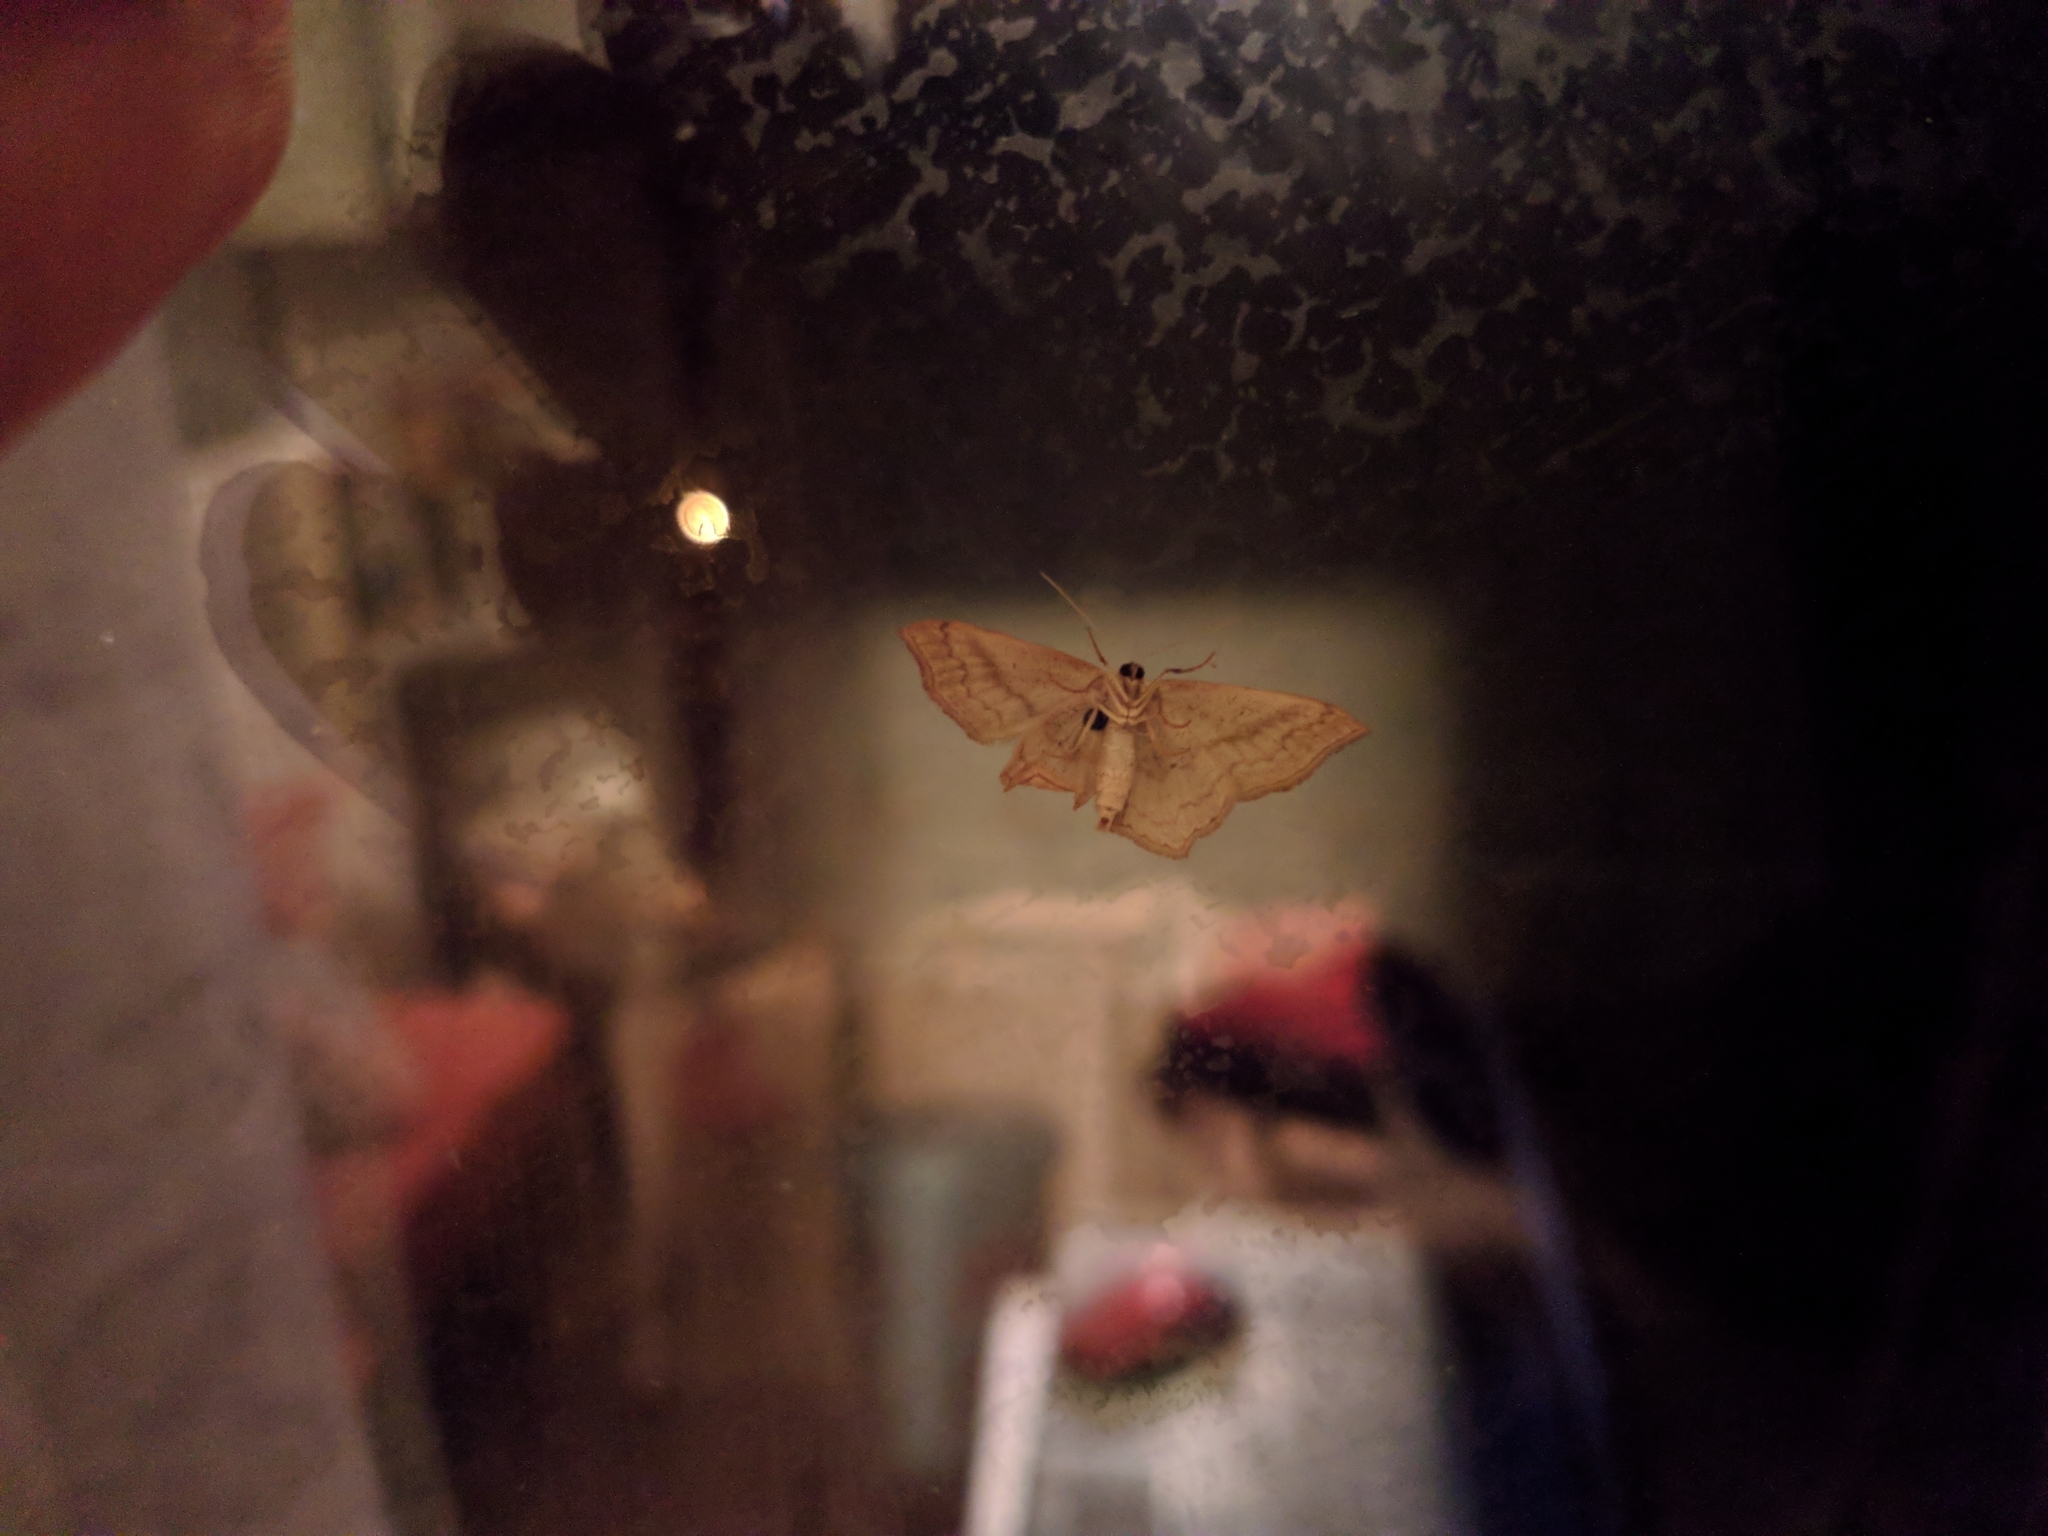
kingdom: Animalia
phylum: Arthropoda
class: Insecta
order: Lepidoptera
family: Geometridae
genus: Scopula
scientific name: Scopula imitaria
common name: Small blood-vein
